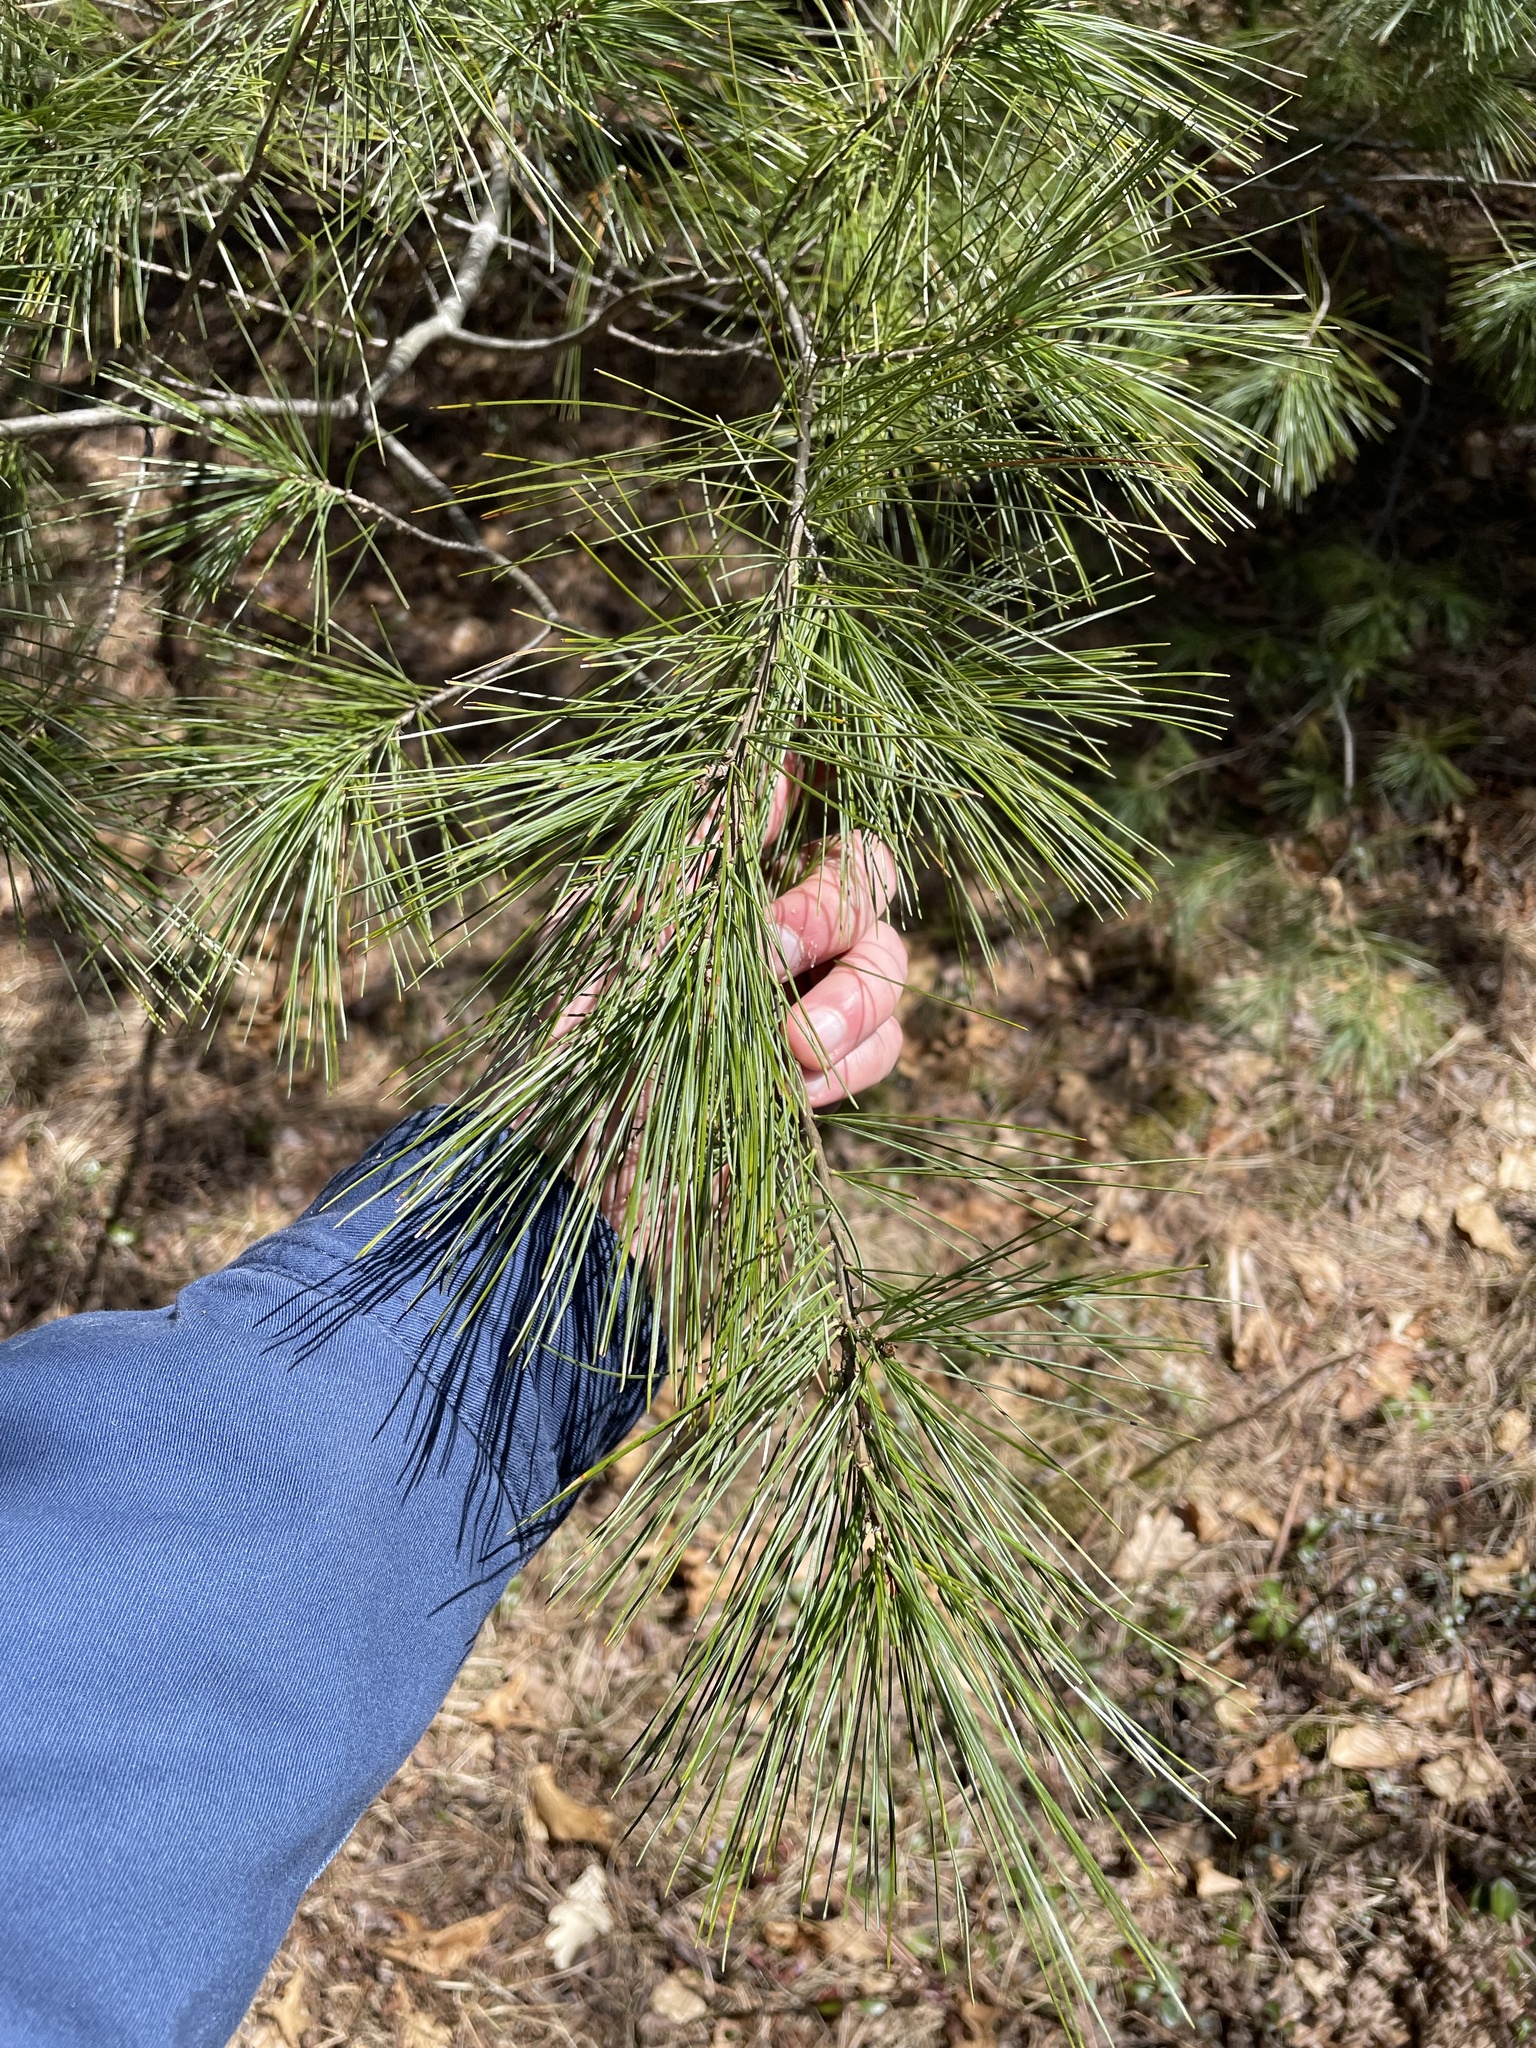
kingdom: Plantae
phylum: Tracheophyta
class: Pinopsida
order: Pinales
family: Pinaceae
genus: Pinus
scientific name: Pinus strobus
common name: Weymouth pine
